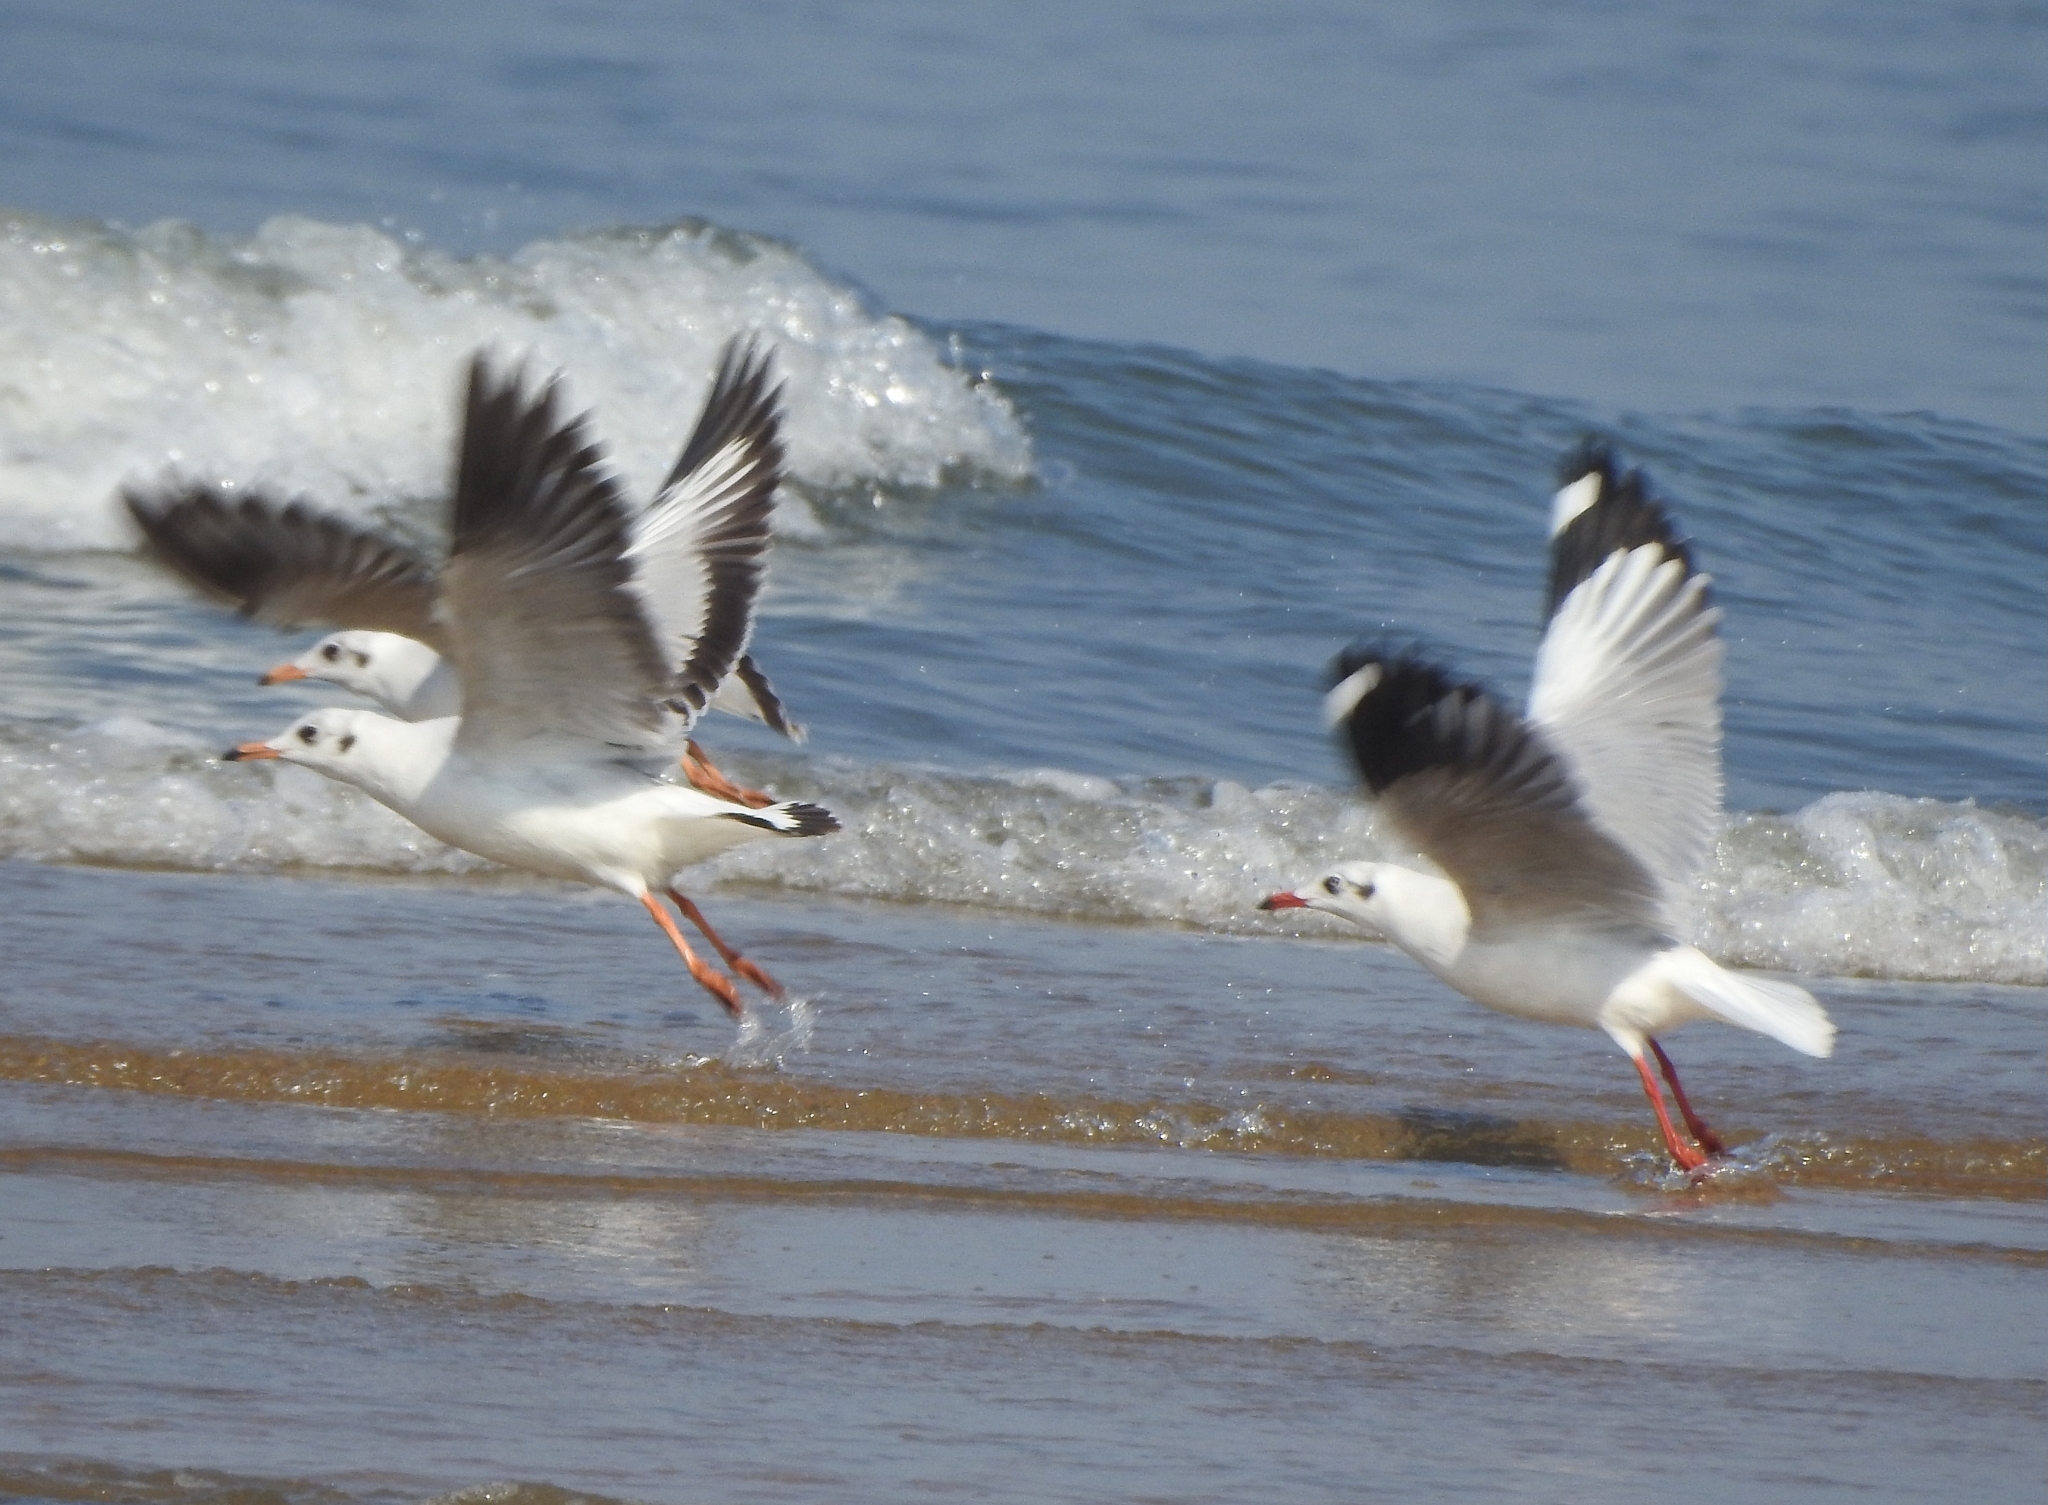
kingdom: Animalia
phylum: Chordata
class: Aves
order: Charadriiformes
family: Laridae
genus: Chroicocephalus
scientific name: Chroicocephalus brunnicephalus
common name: Brown-headed gull
